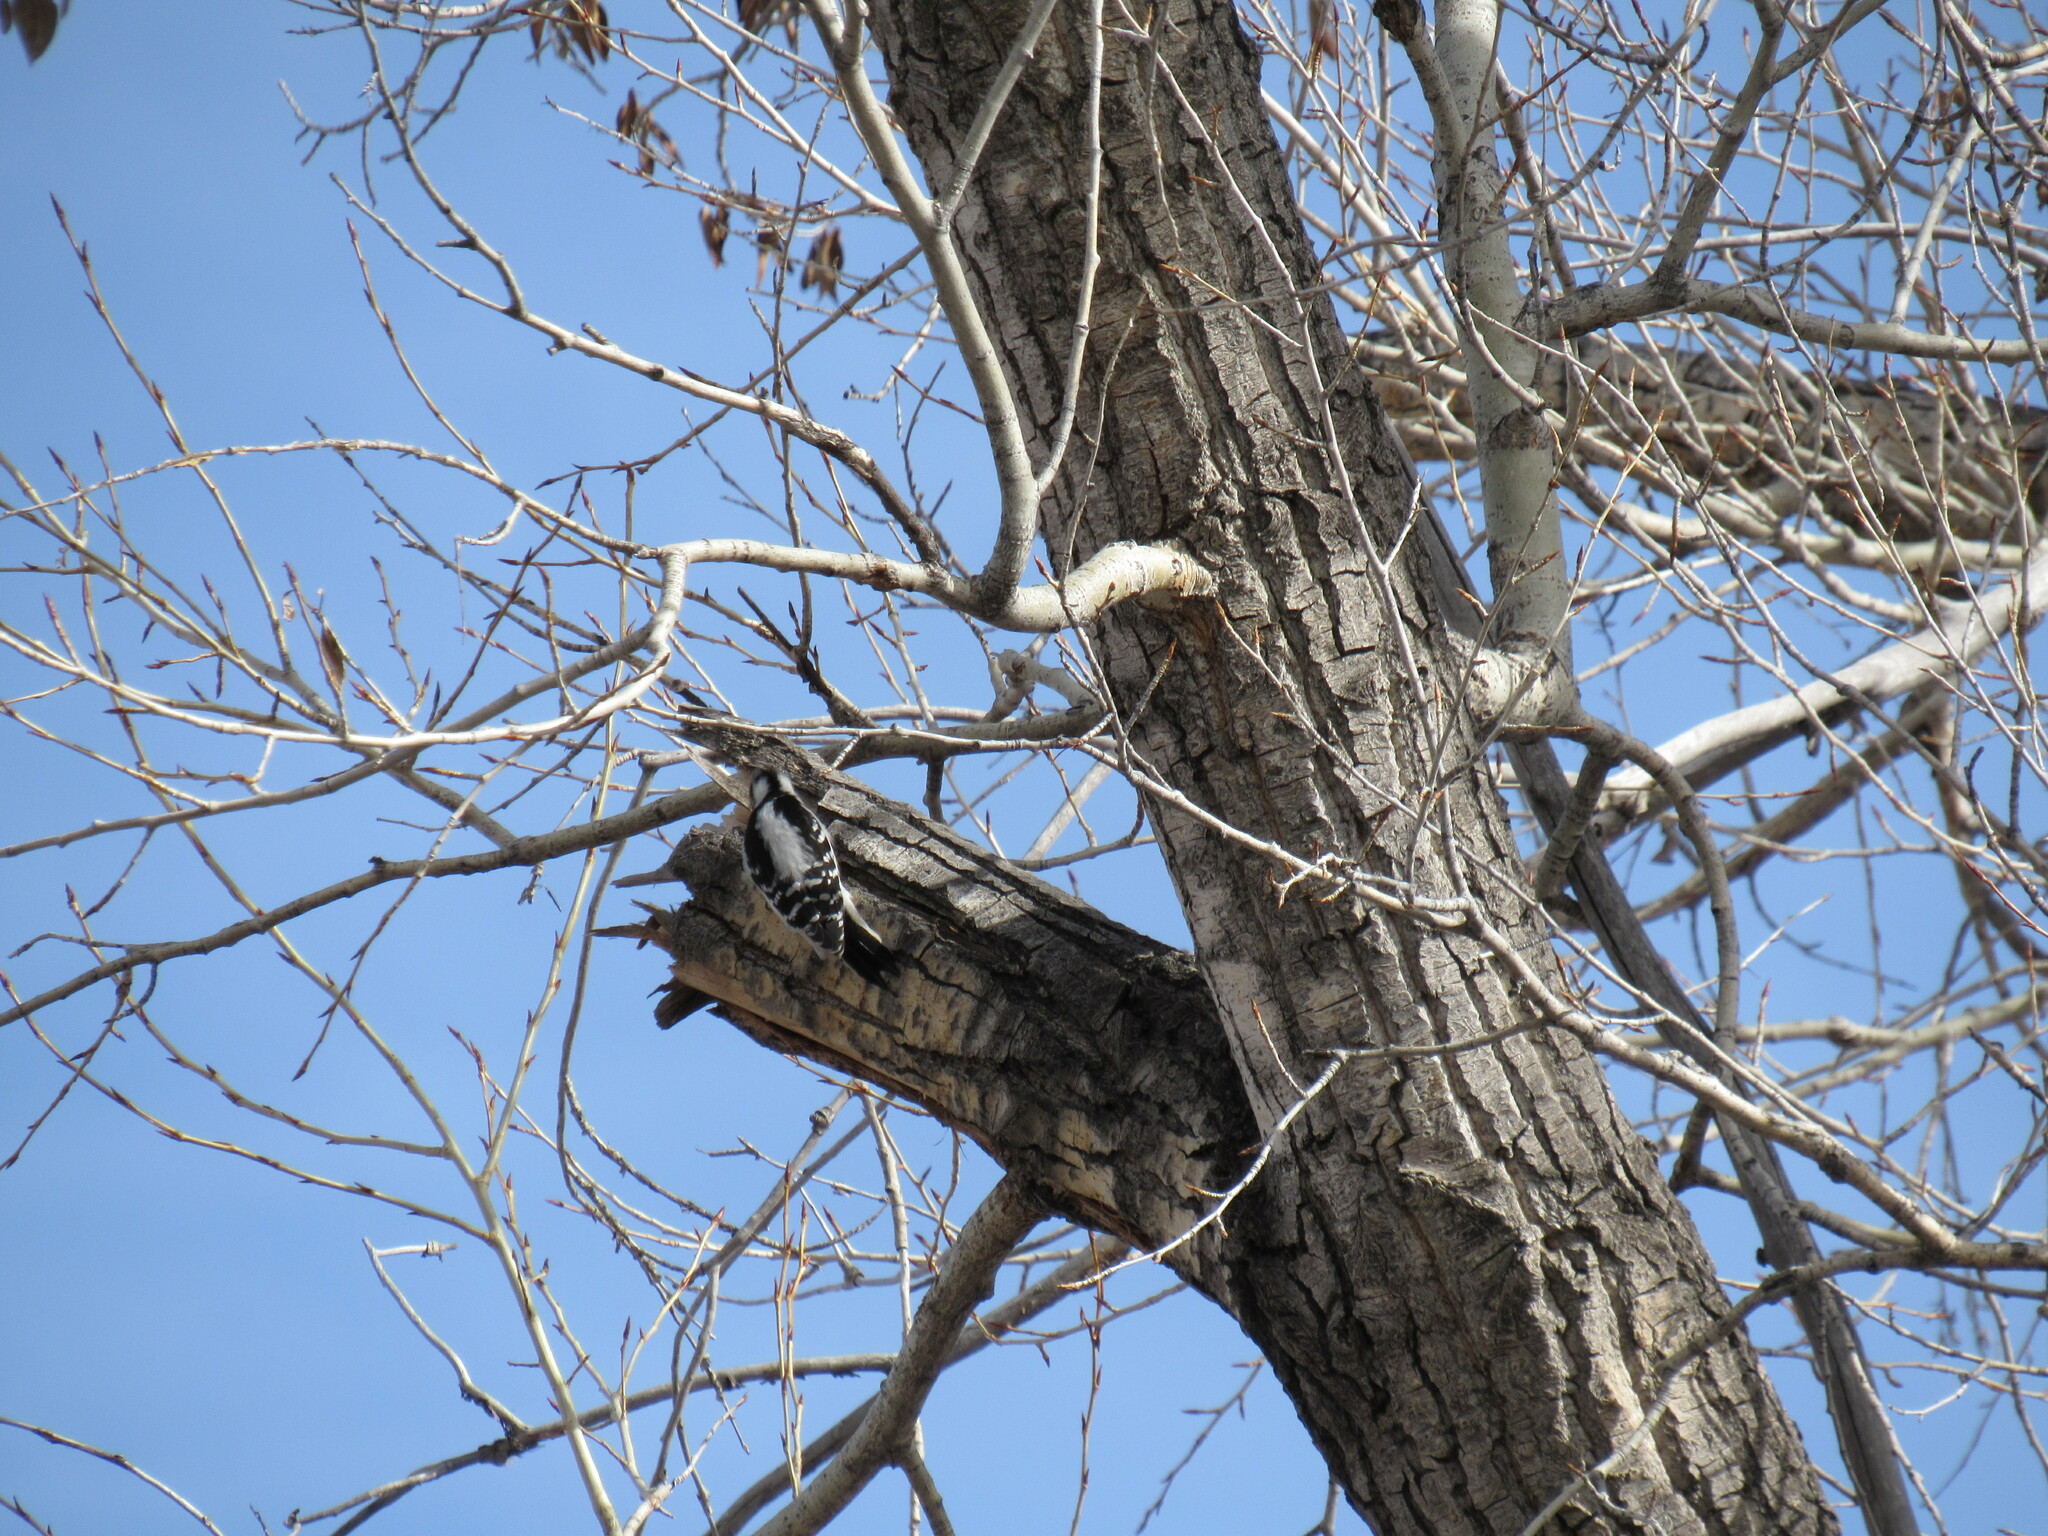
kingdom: Animalia
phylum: Chordata
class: Aves
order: Piciformes
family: Picidae
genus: Dryobates
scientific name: Dryobates pubescens
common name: Downy woodpecker
